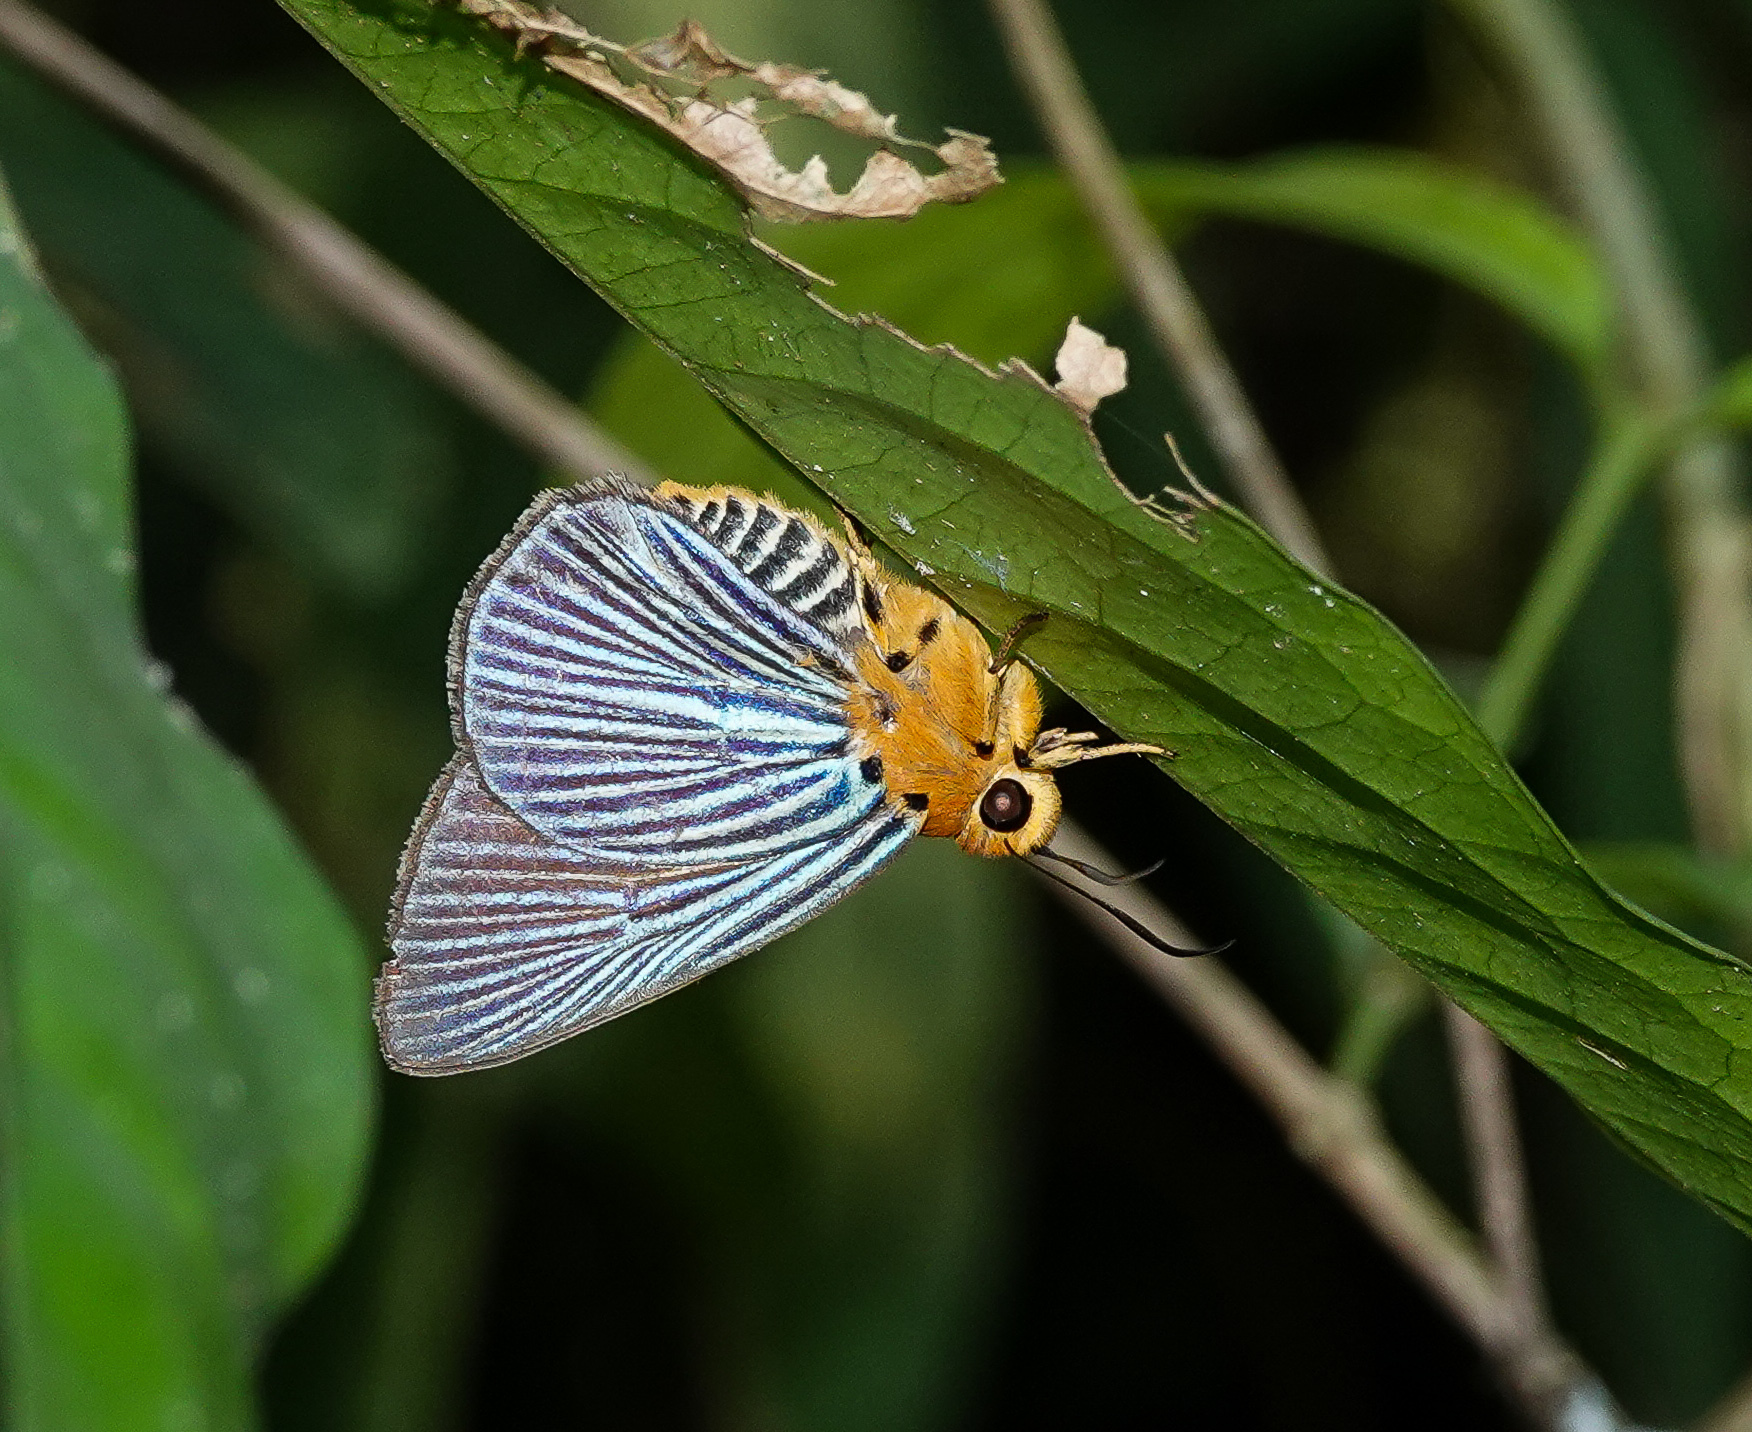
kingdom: Animalia
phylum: Arthropoda
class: Insecta
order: Lepidoptera
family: Hesperiidae
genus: Bibasis
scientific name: Bibasis amara
